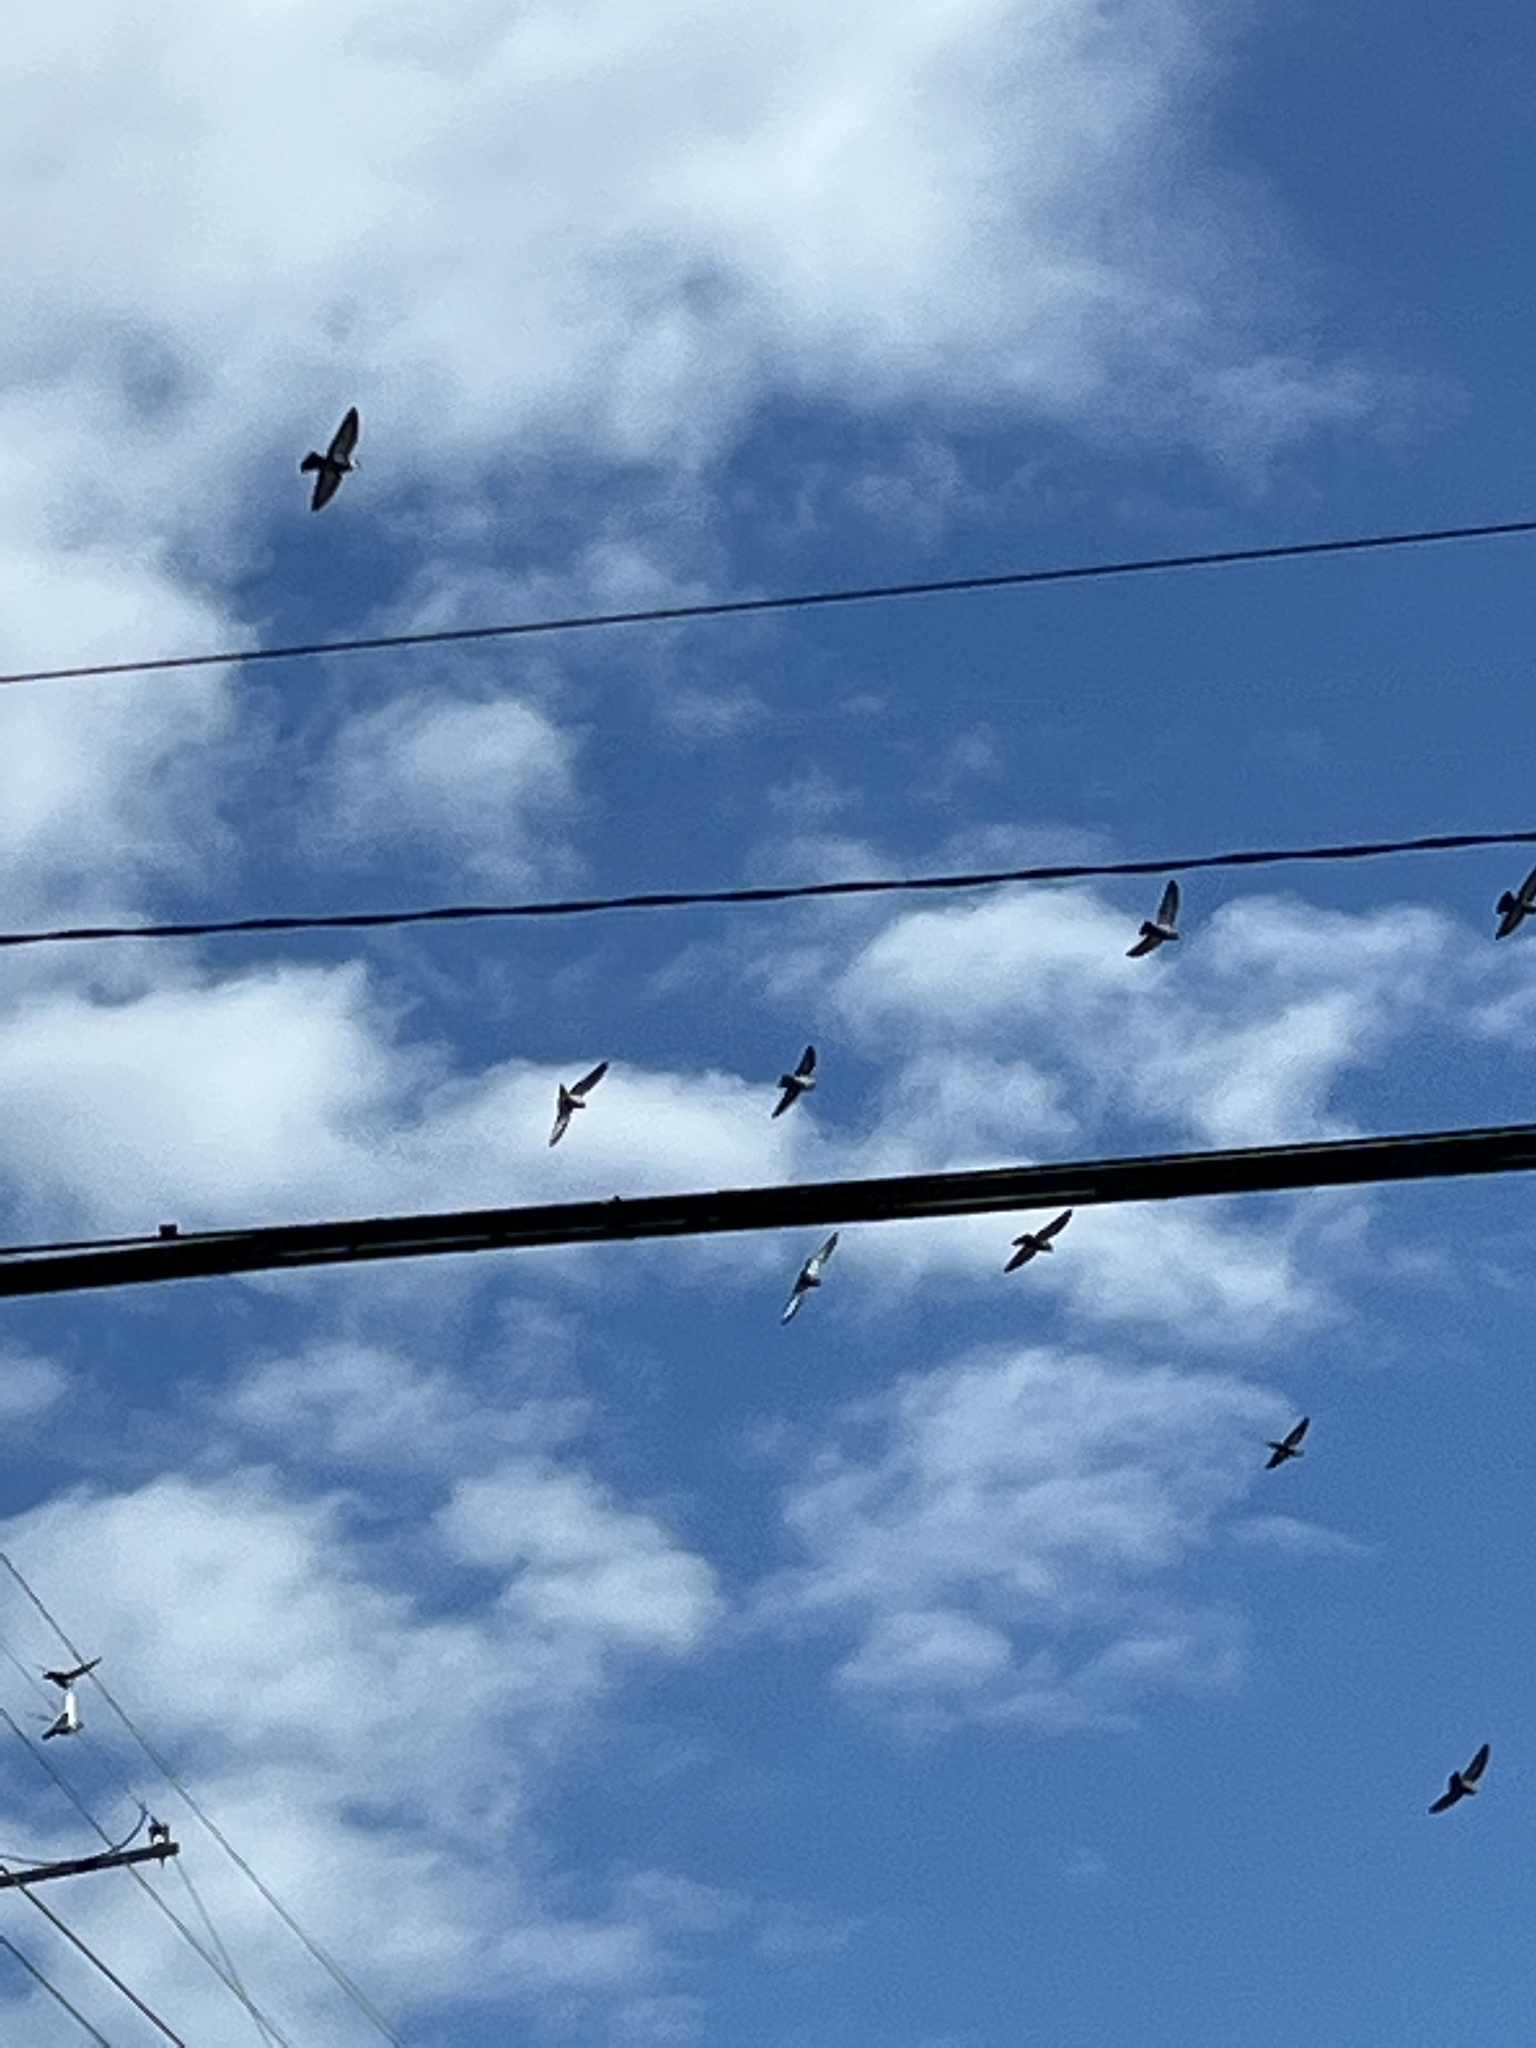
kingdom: Animalia
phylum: Chordata
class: Aves
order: Columbiformes
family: Columbidae
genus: Columba
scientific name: Columba livia
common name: Rock pigeon
